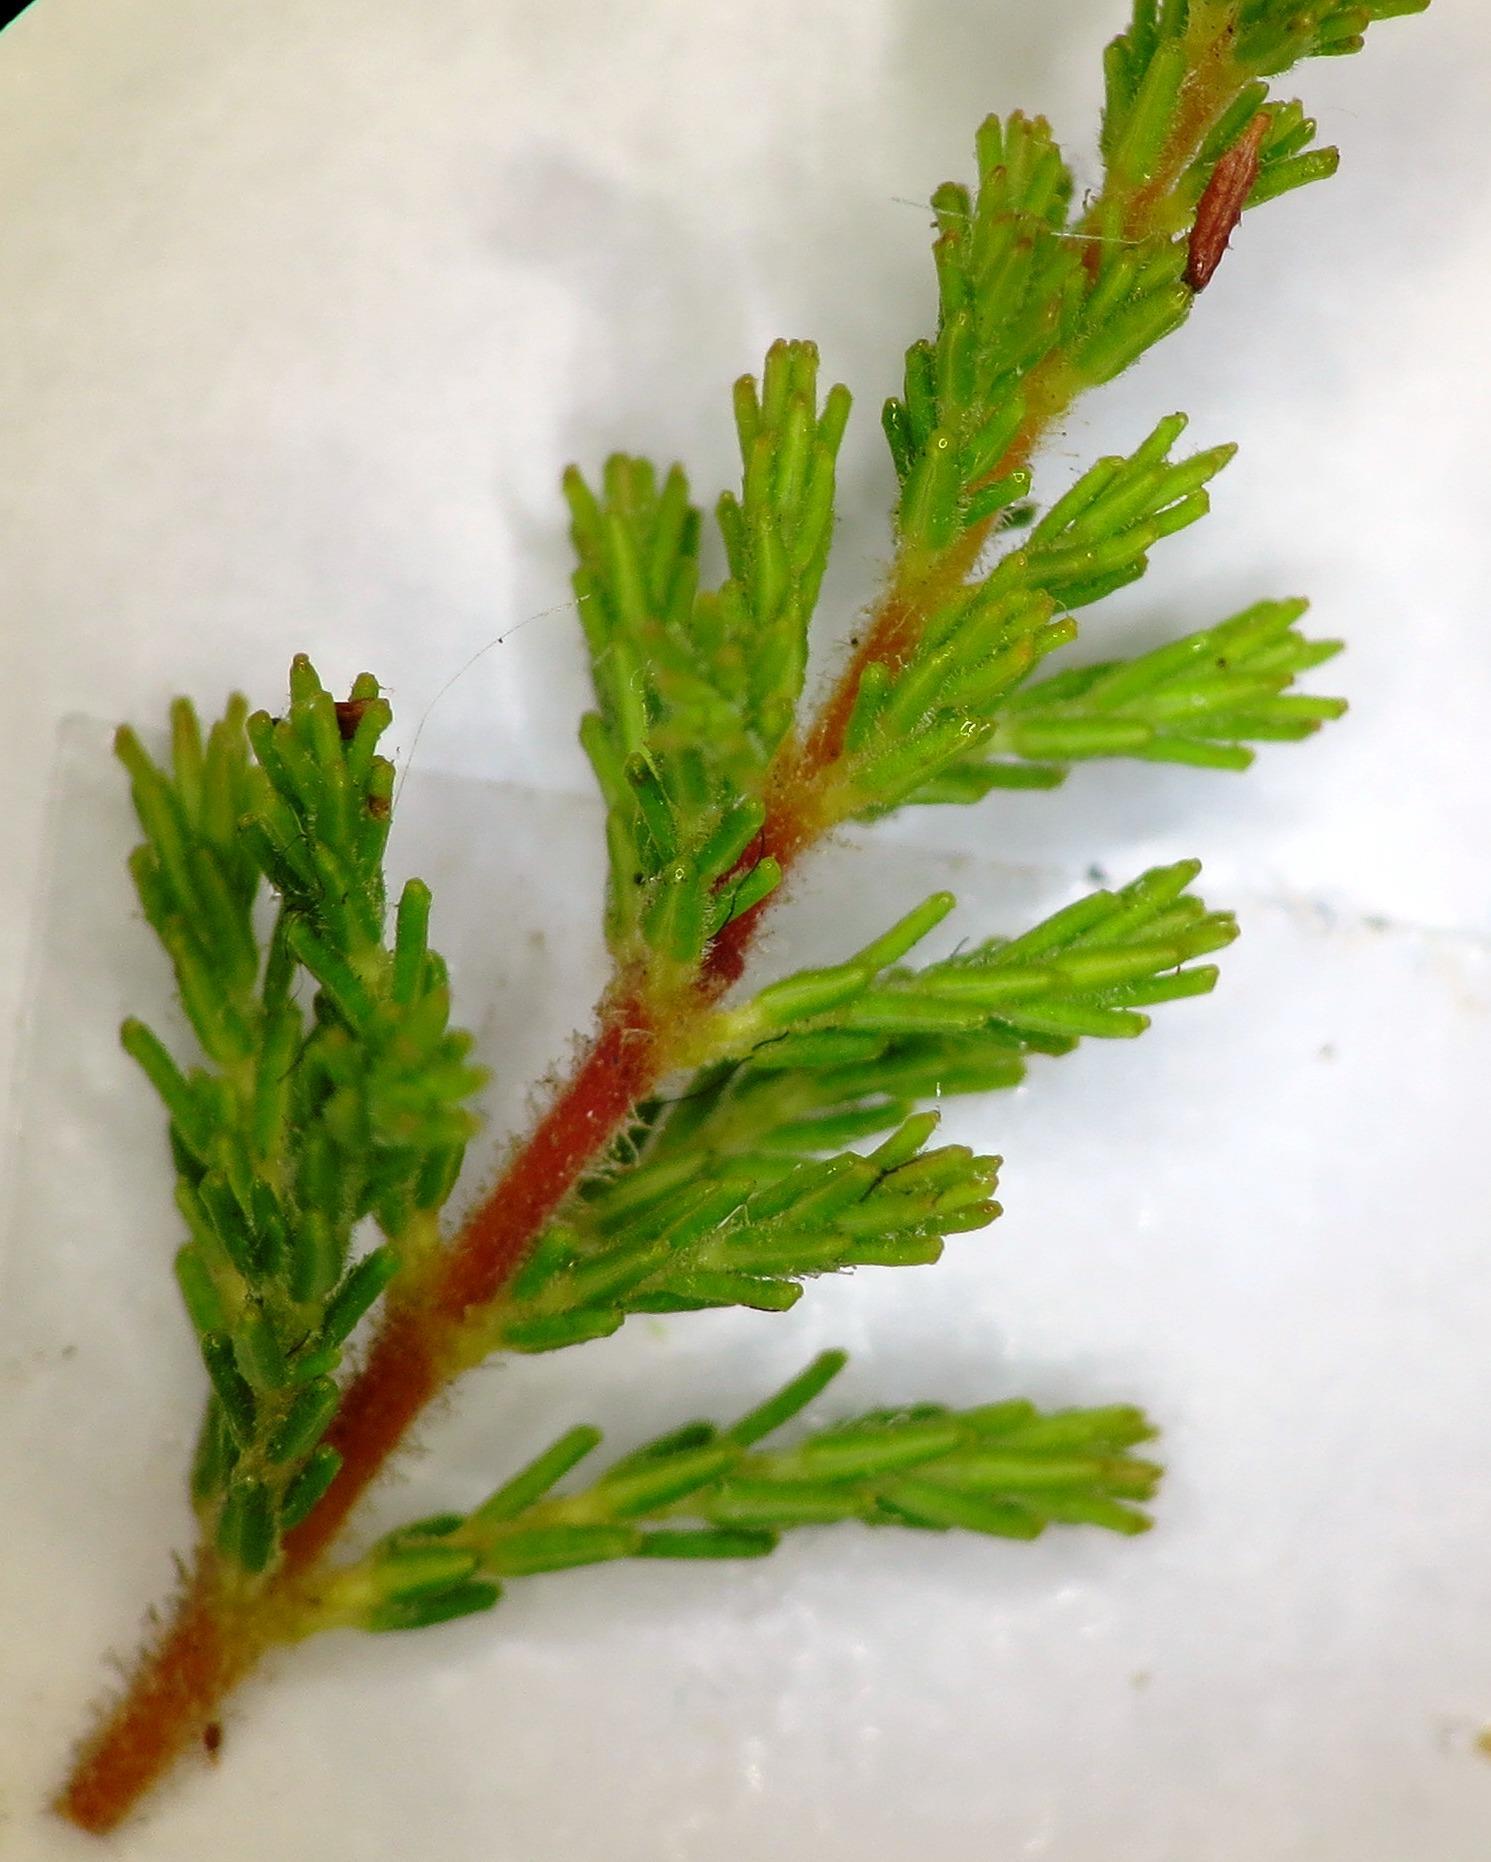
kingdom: Plantae
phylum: Tracheophyta
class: Magnoliopsida
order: Ericales
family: Ericaceae
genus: Erica
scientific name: Erica sitiens
